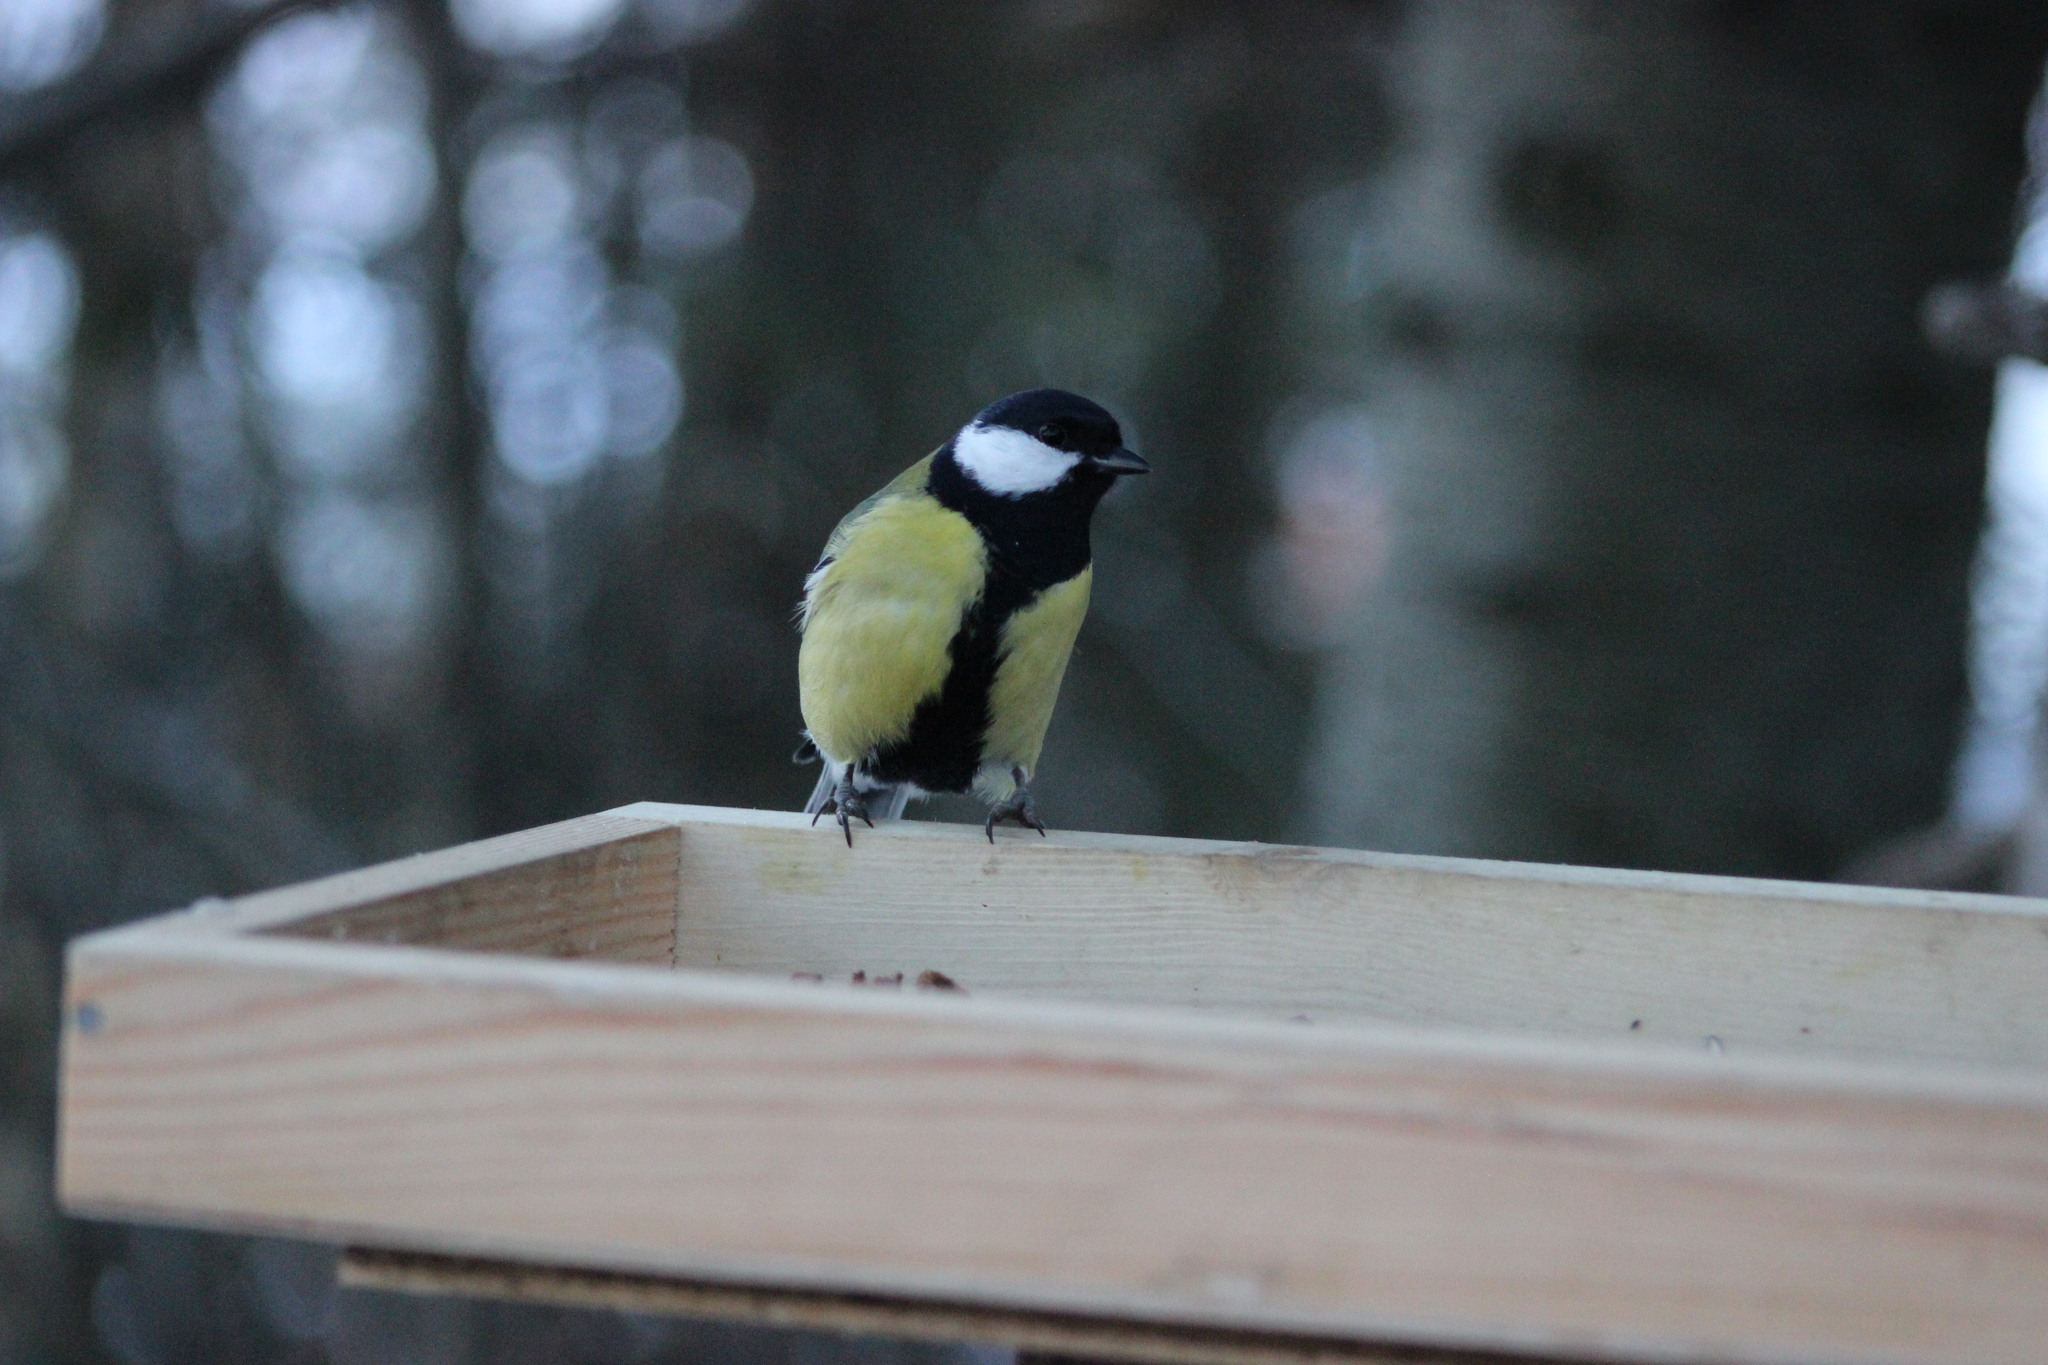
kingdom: Animalia
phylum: Chordata
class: Aves
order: Passeriformes
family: Paridae
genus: Parus
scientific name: Parus major
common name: Great tit
